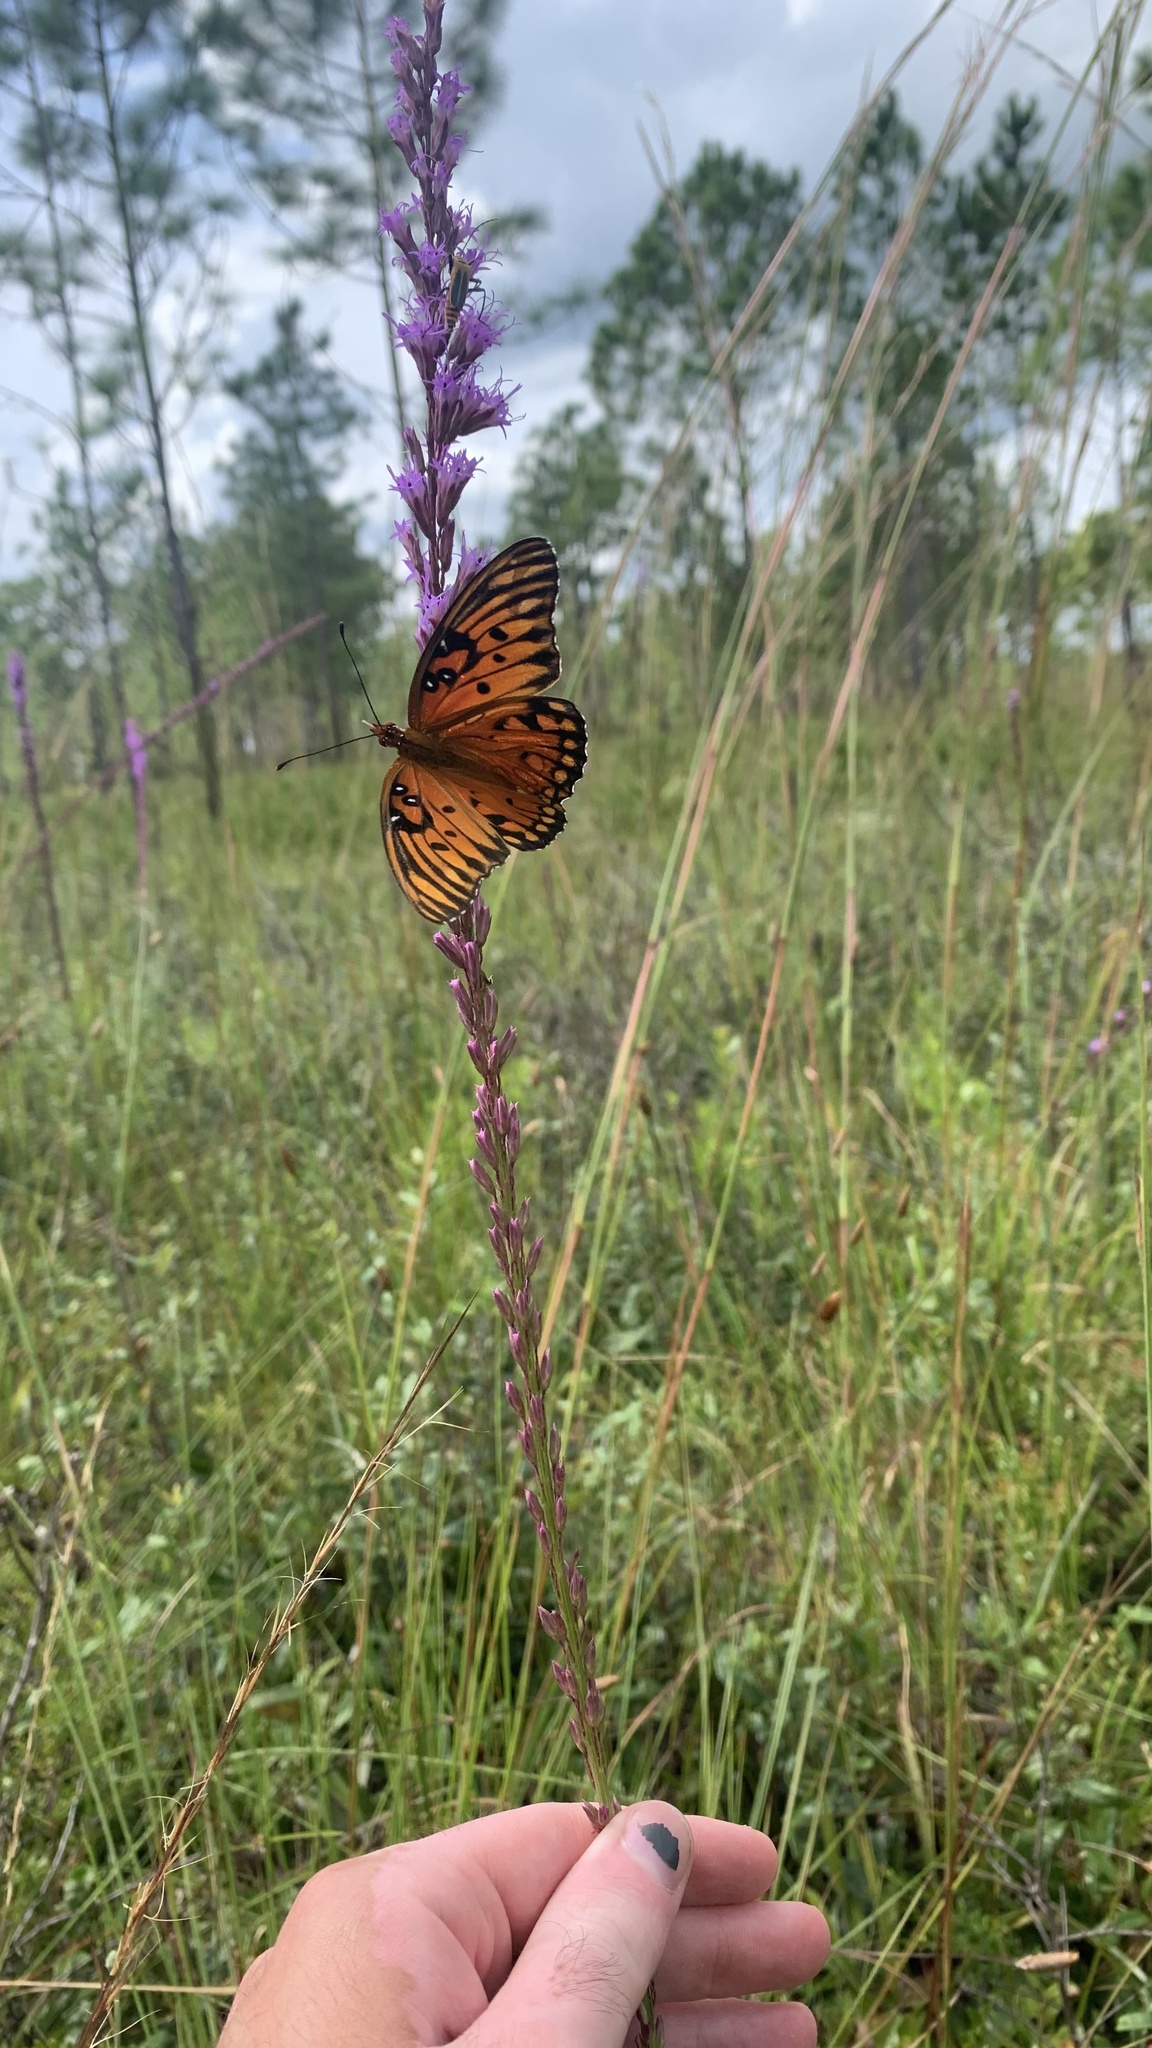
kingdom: Animalia
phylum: Arthropoda
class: Insecta
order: Lepidoptera
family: Nymphalidae
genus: Dione
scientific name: Dione vanillae
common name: Gulf fritillary
